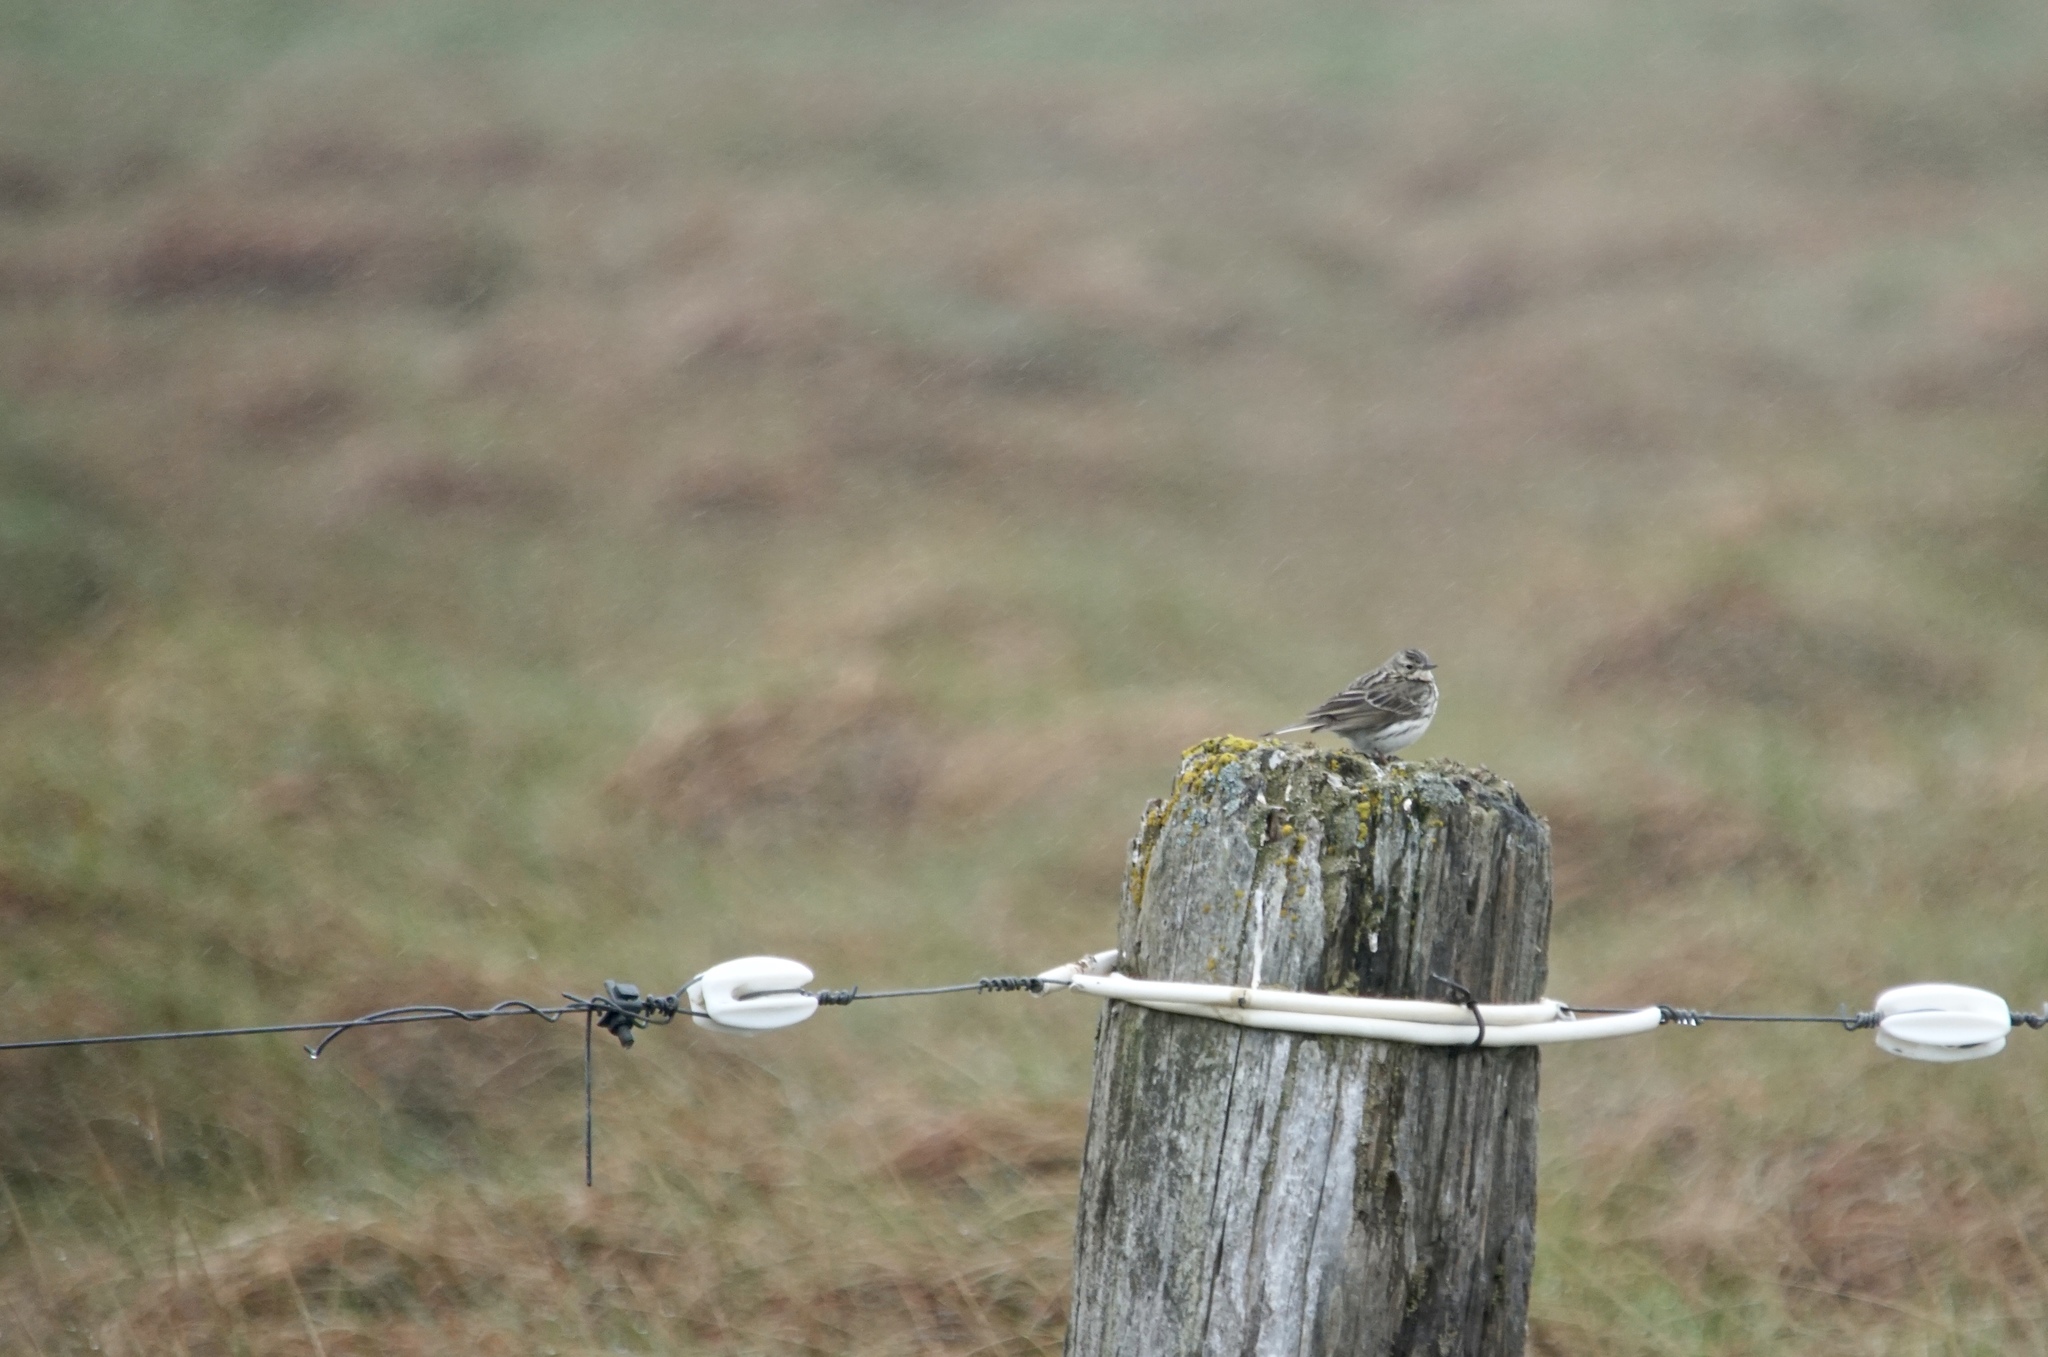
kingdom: Animalia
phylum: Chordata
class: Aves
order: Passeriformes
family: Motacillidae
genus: Anthus
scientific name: Anthus pratensis
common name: Meadow pipit
